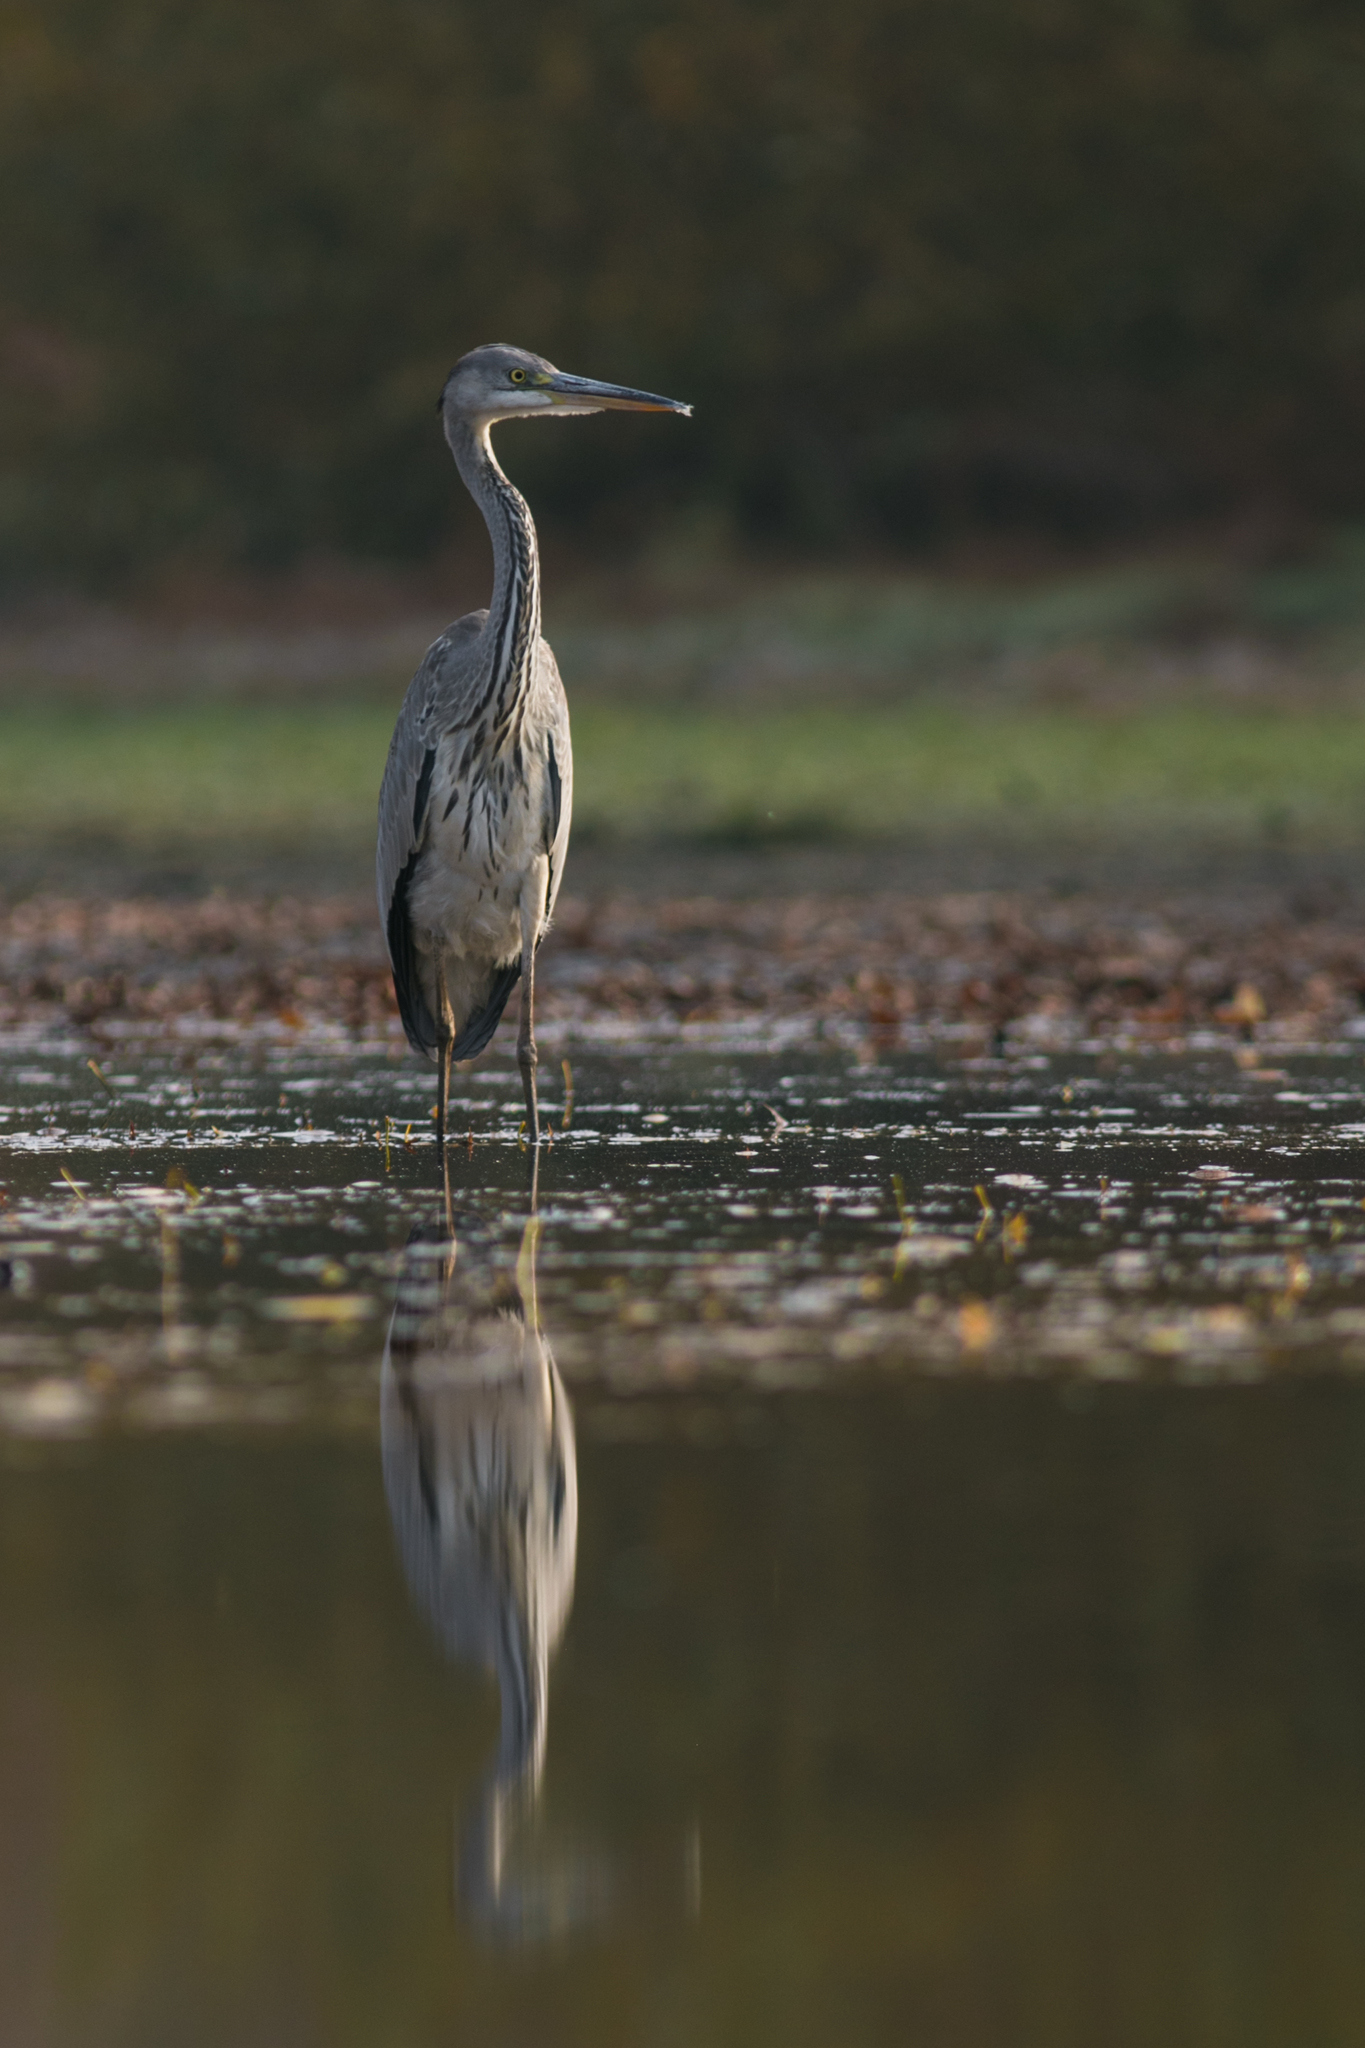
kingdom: Animalia
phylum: Chordata
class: Aves
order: Pelecaniformes
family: Ardeidae
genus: Ardea
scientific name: Ardea cinerea
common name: Grey heron
